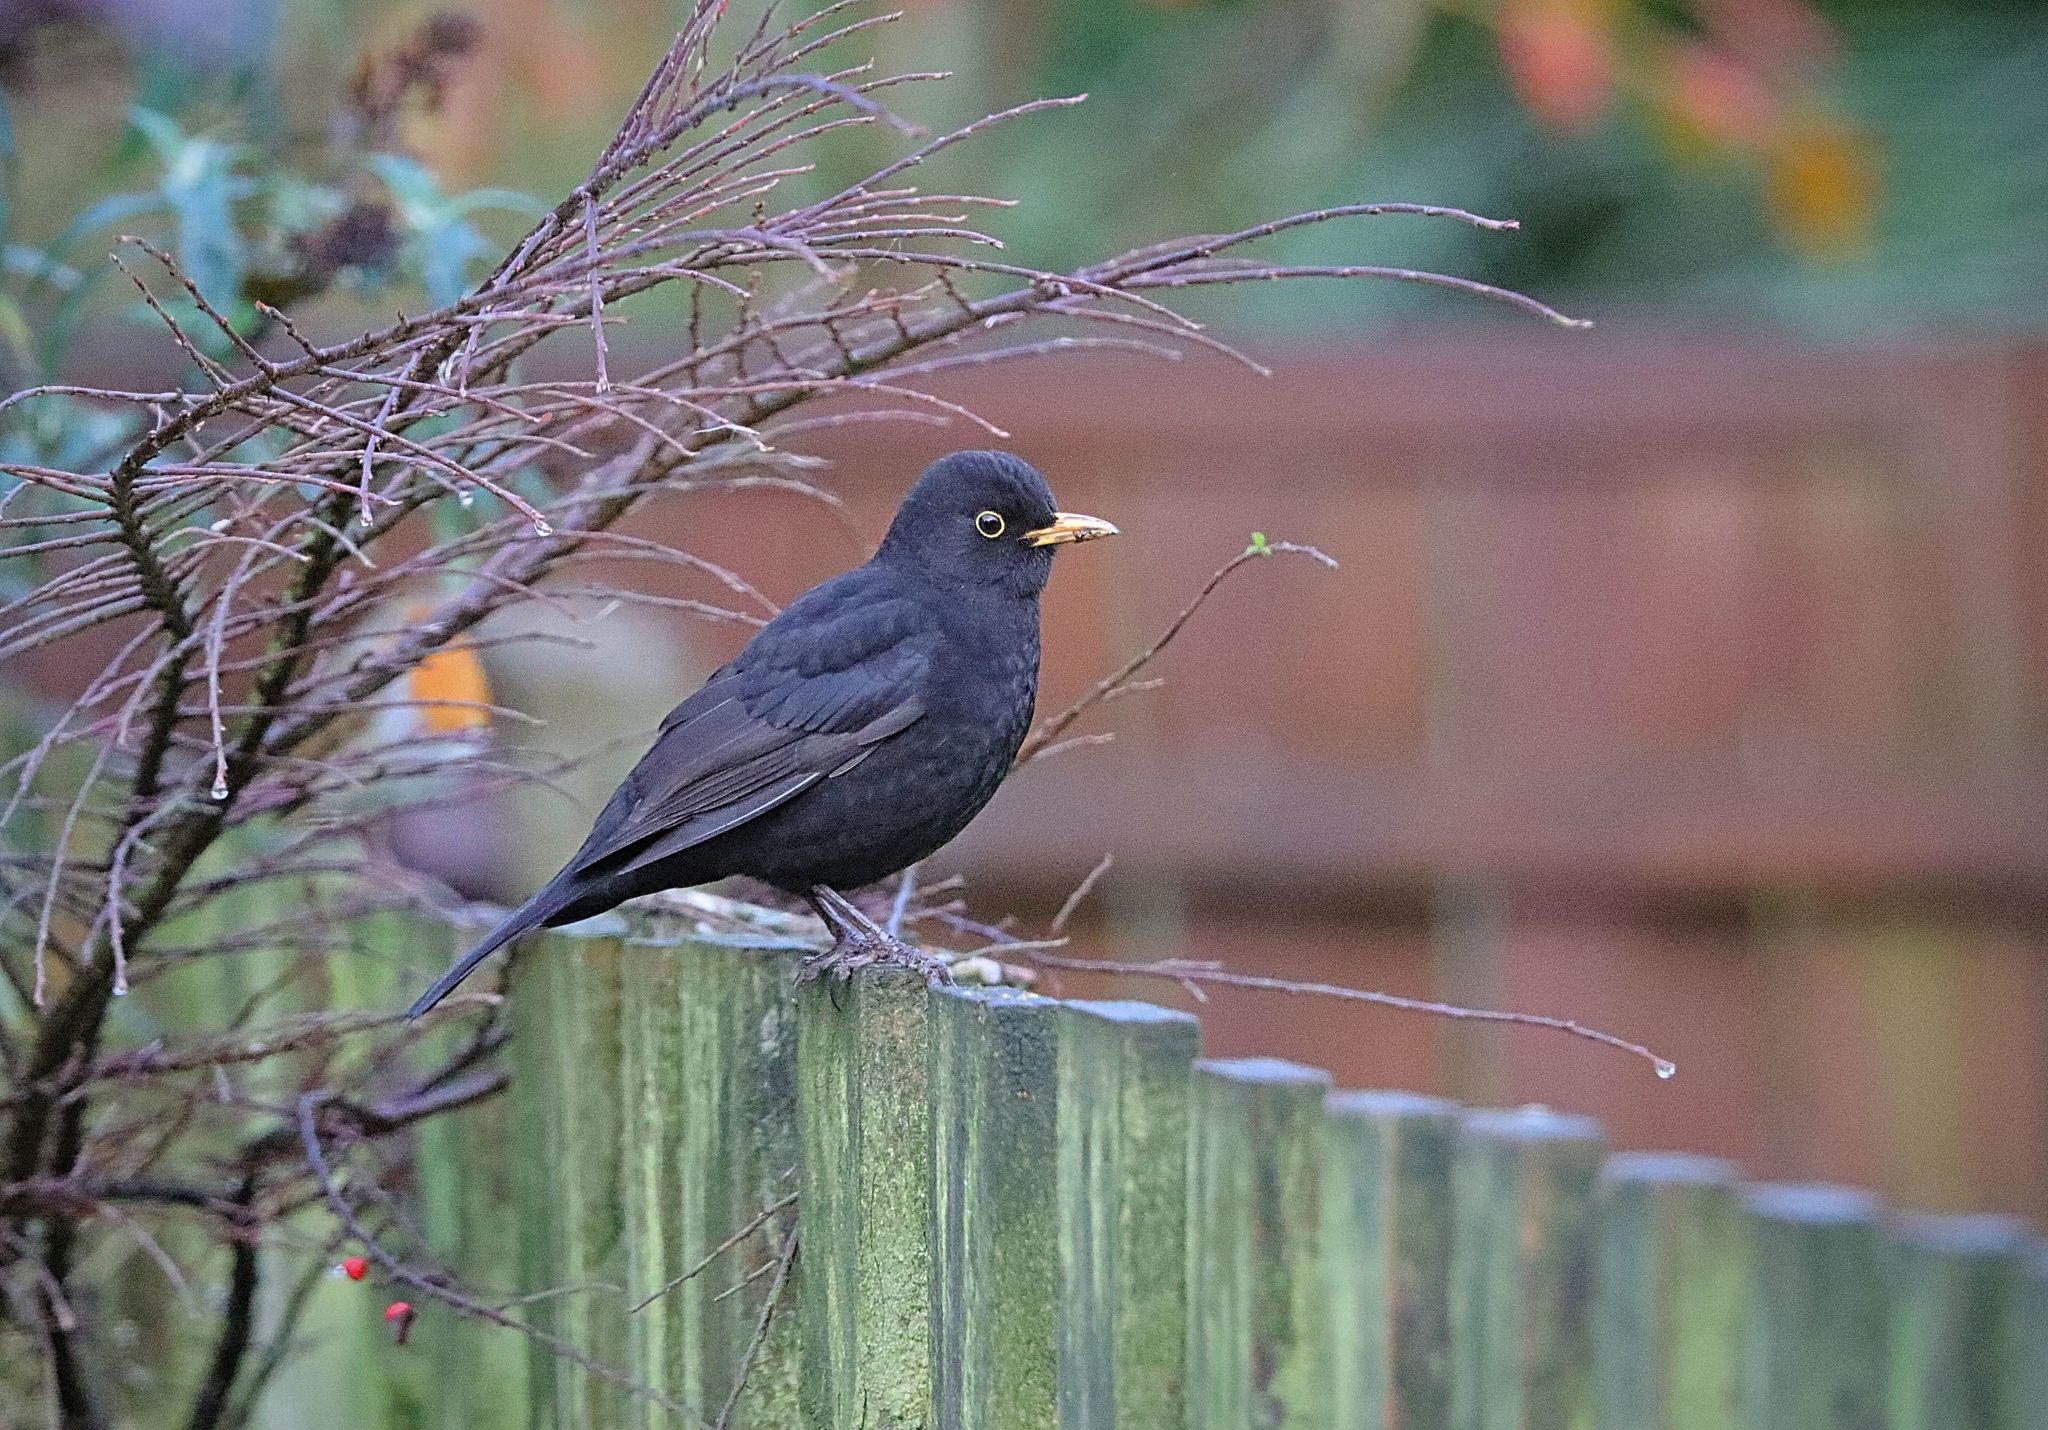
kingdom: Animalia
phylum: Chordata
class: Aves
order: Passeriformes
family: Turdidae
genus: Turdus
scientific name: Turdus merula
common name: Common blackbird
